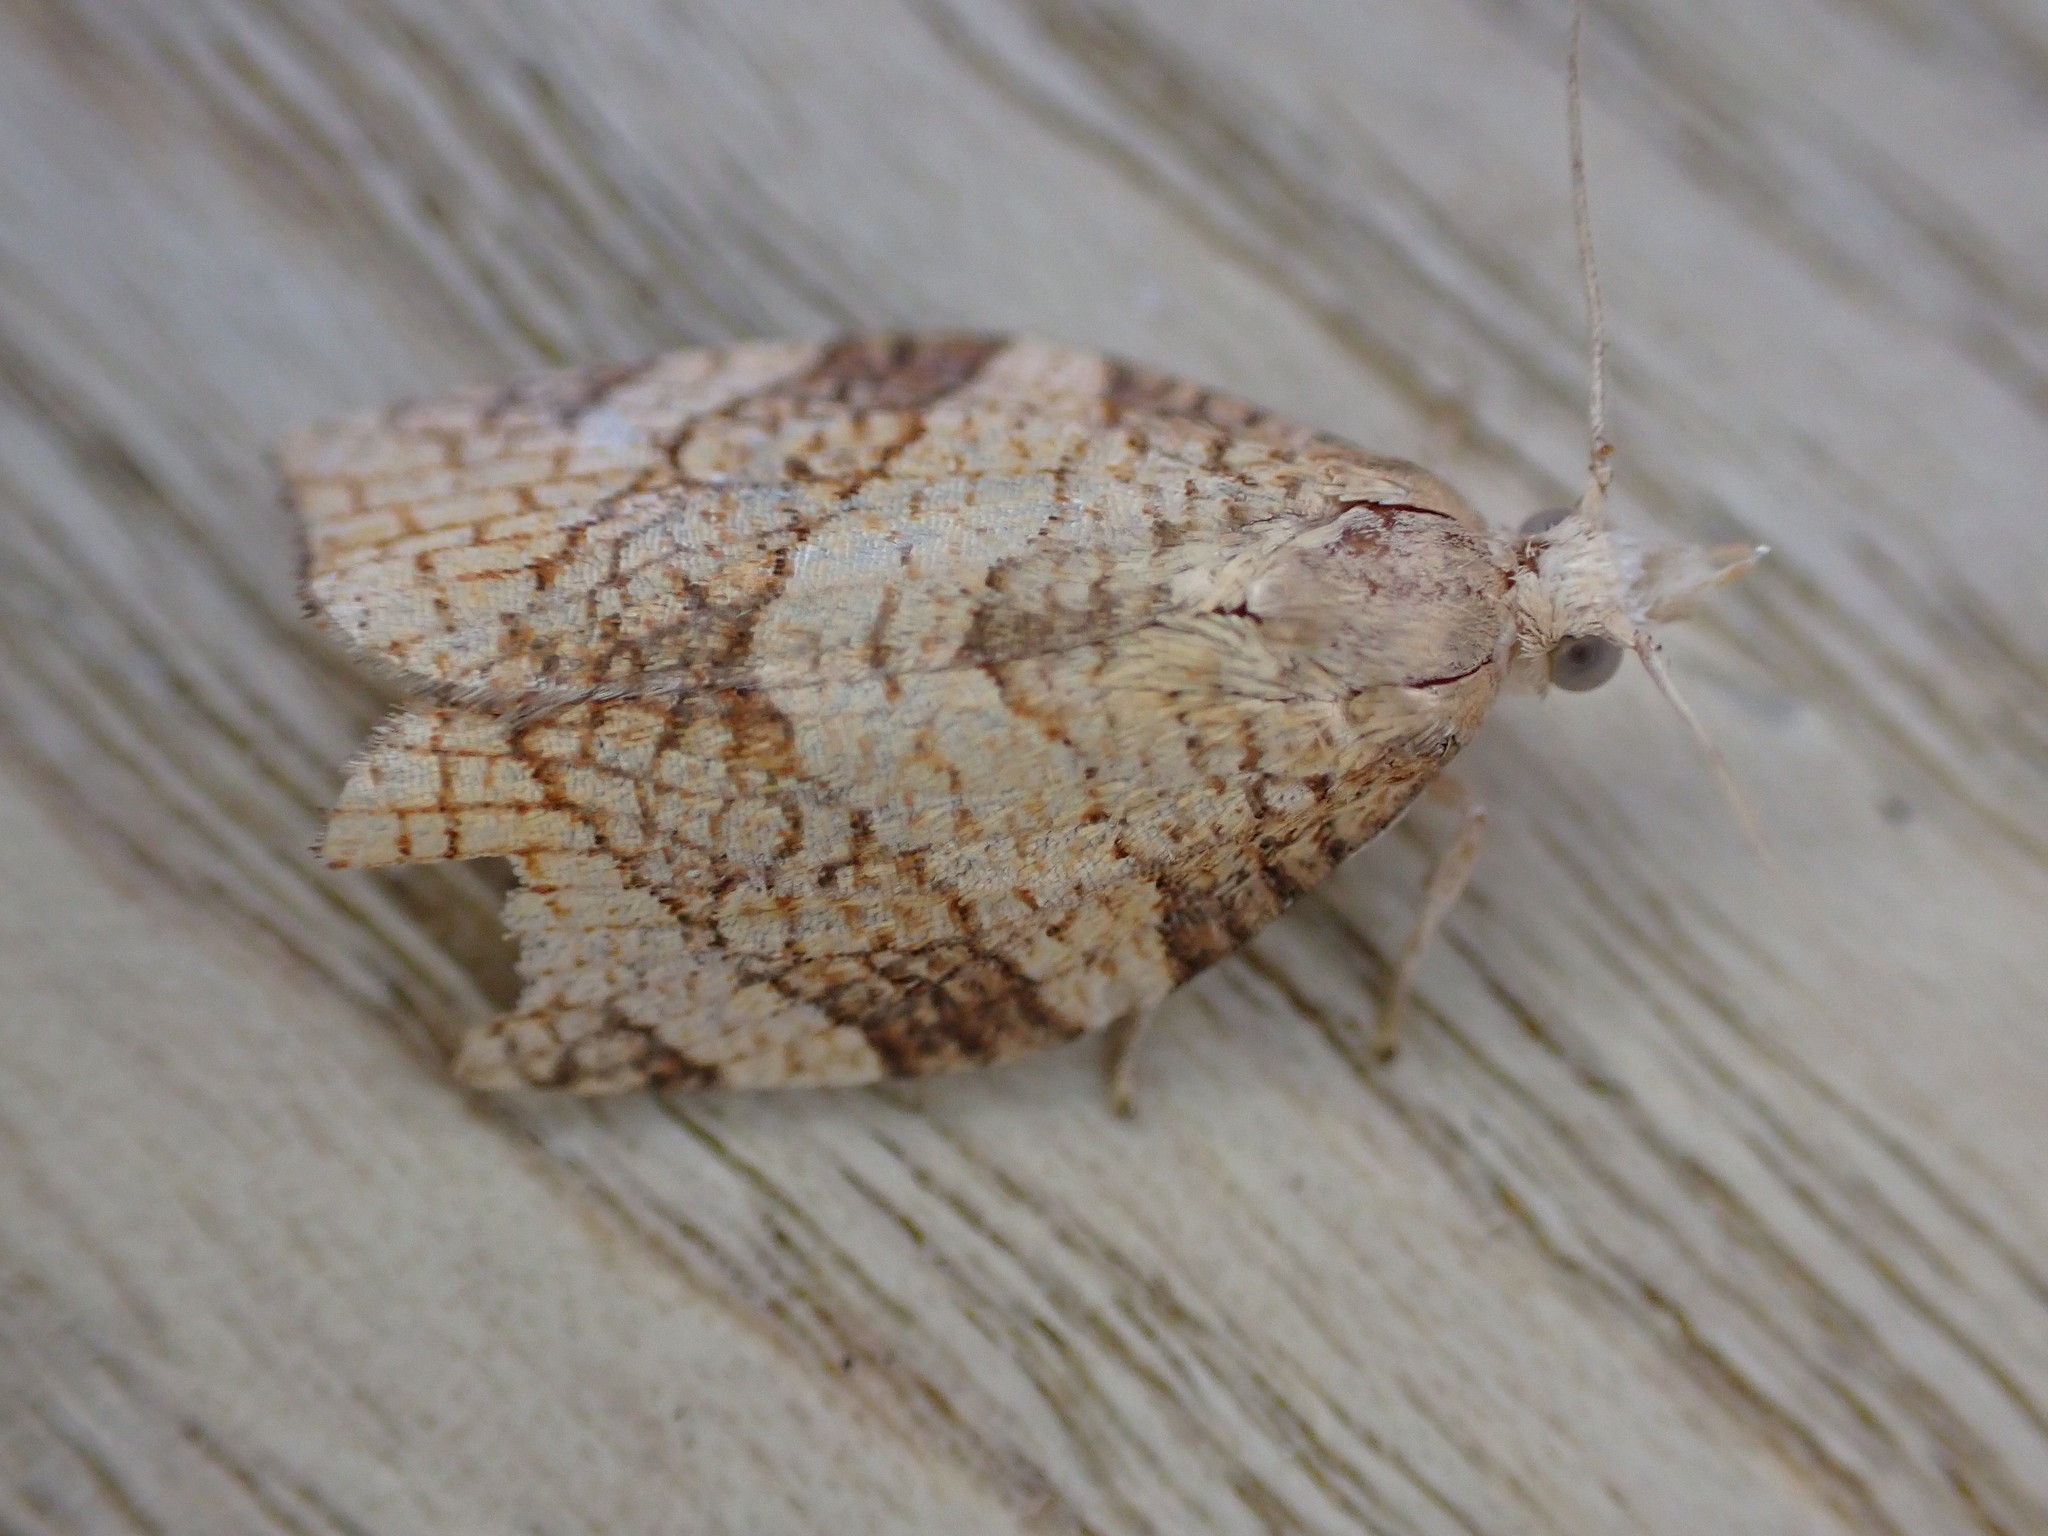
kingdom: Animalia
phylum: Arthropoda
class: Insecta
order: Lepidoptera
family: Tortricidae
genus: Pandemis
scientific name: Pandemis corylana
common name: Chequered fruit-tree tortrix
